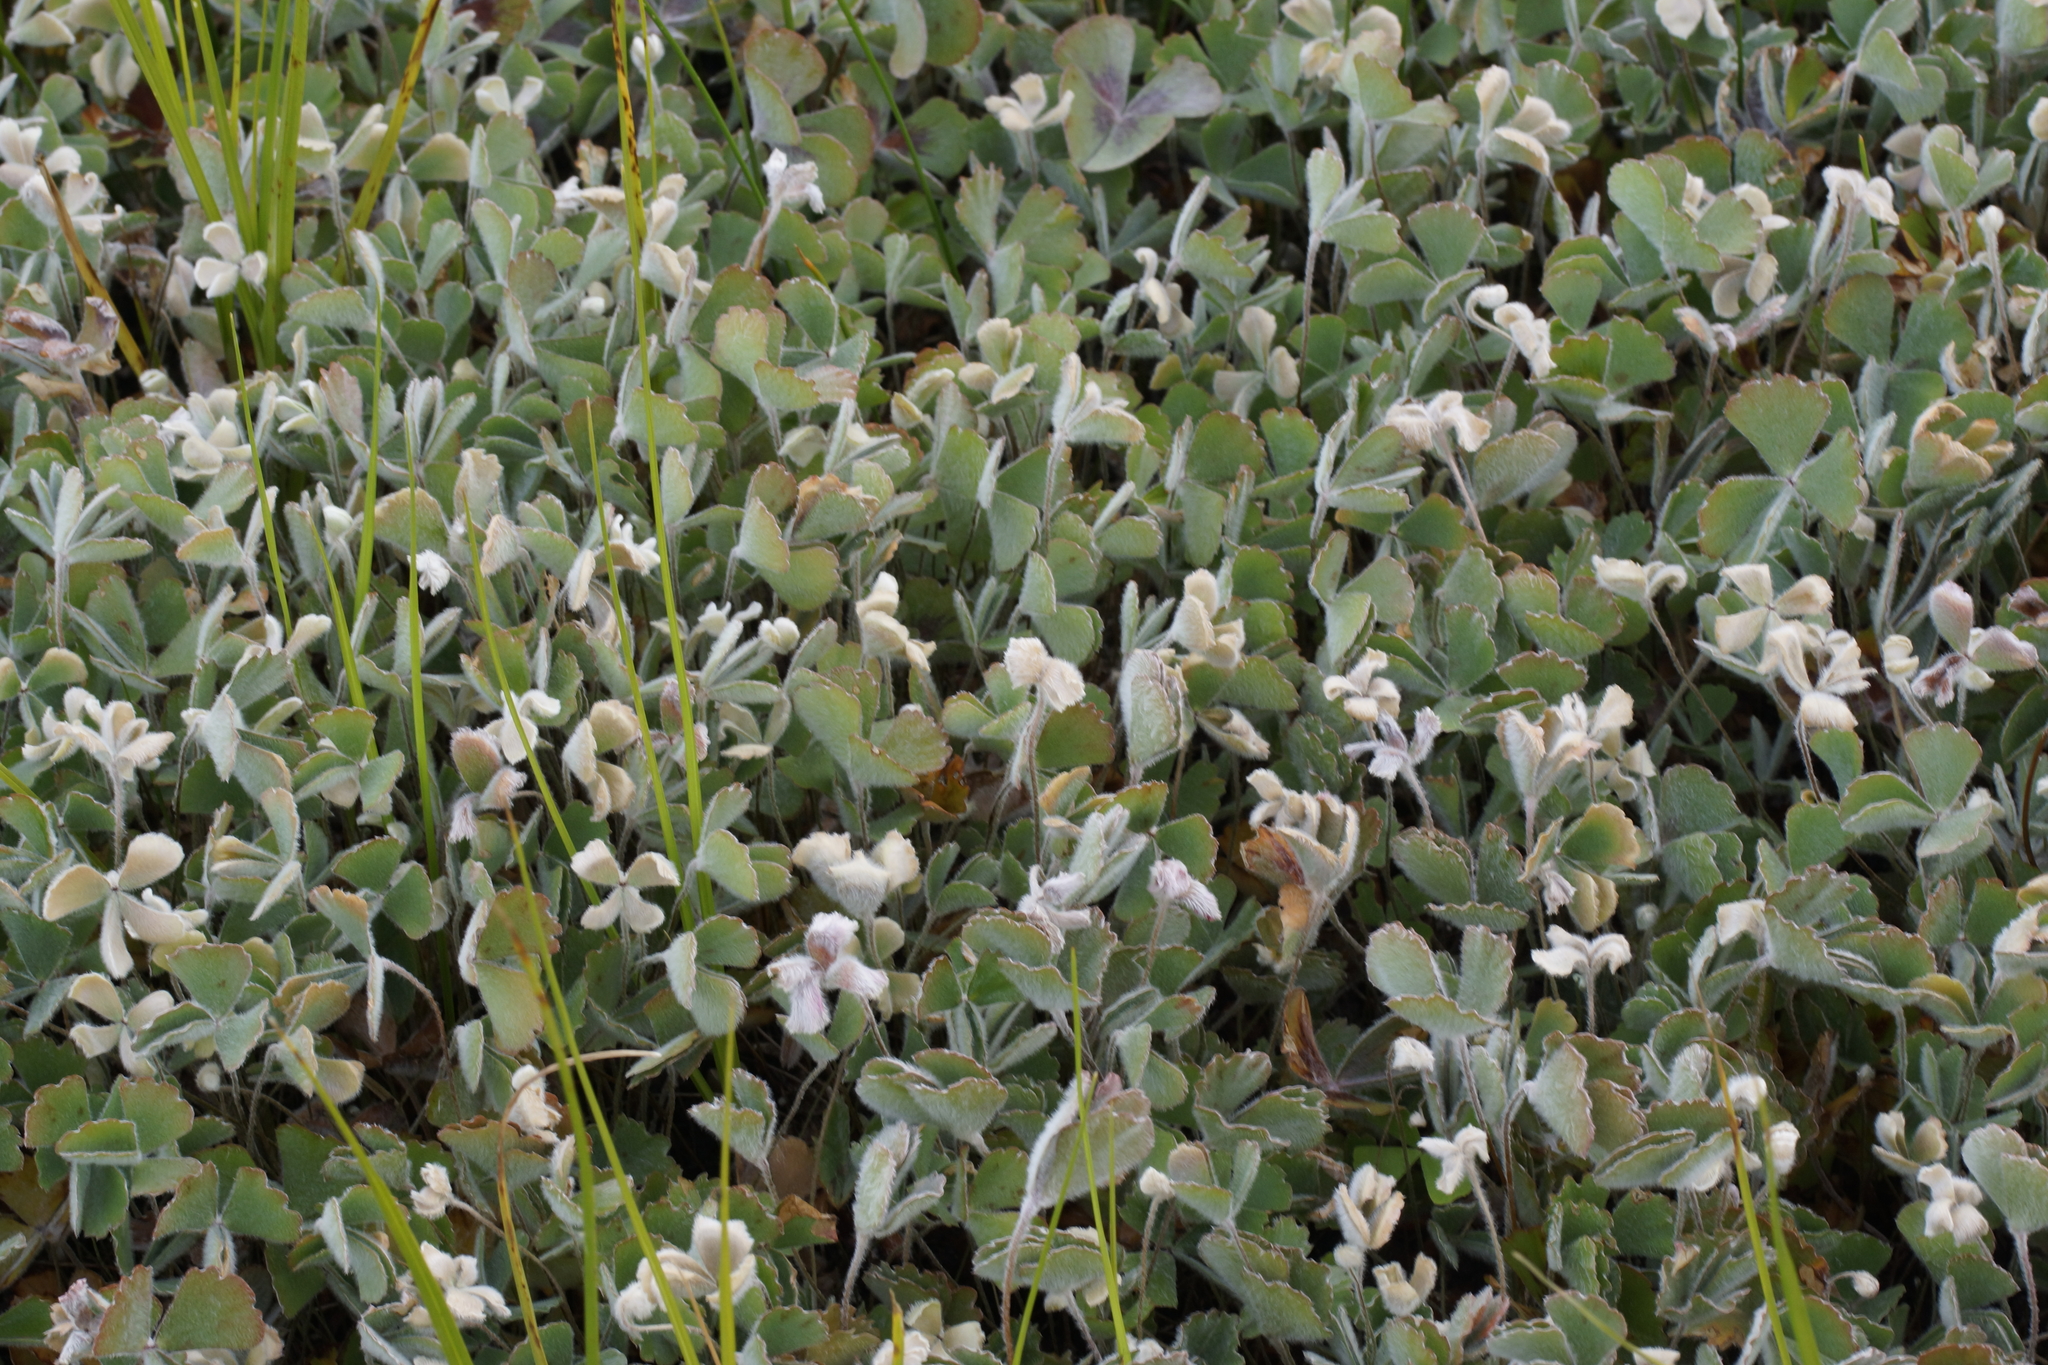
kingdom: Plantae
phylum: Tracheophyta
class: Polypodiopsida
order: Salviniales
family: Marsileaceae
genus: Marsilea
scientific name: Marsilea drummondii
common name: Nardoo
